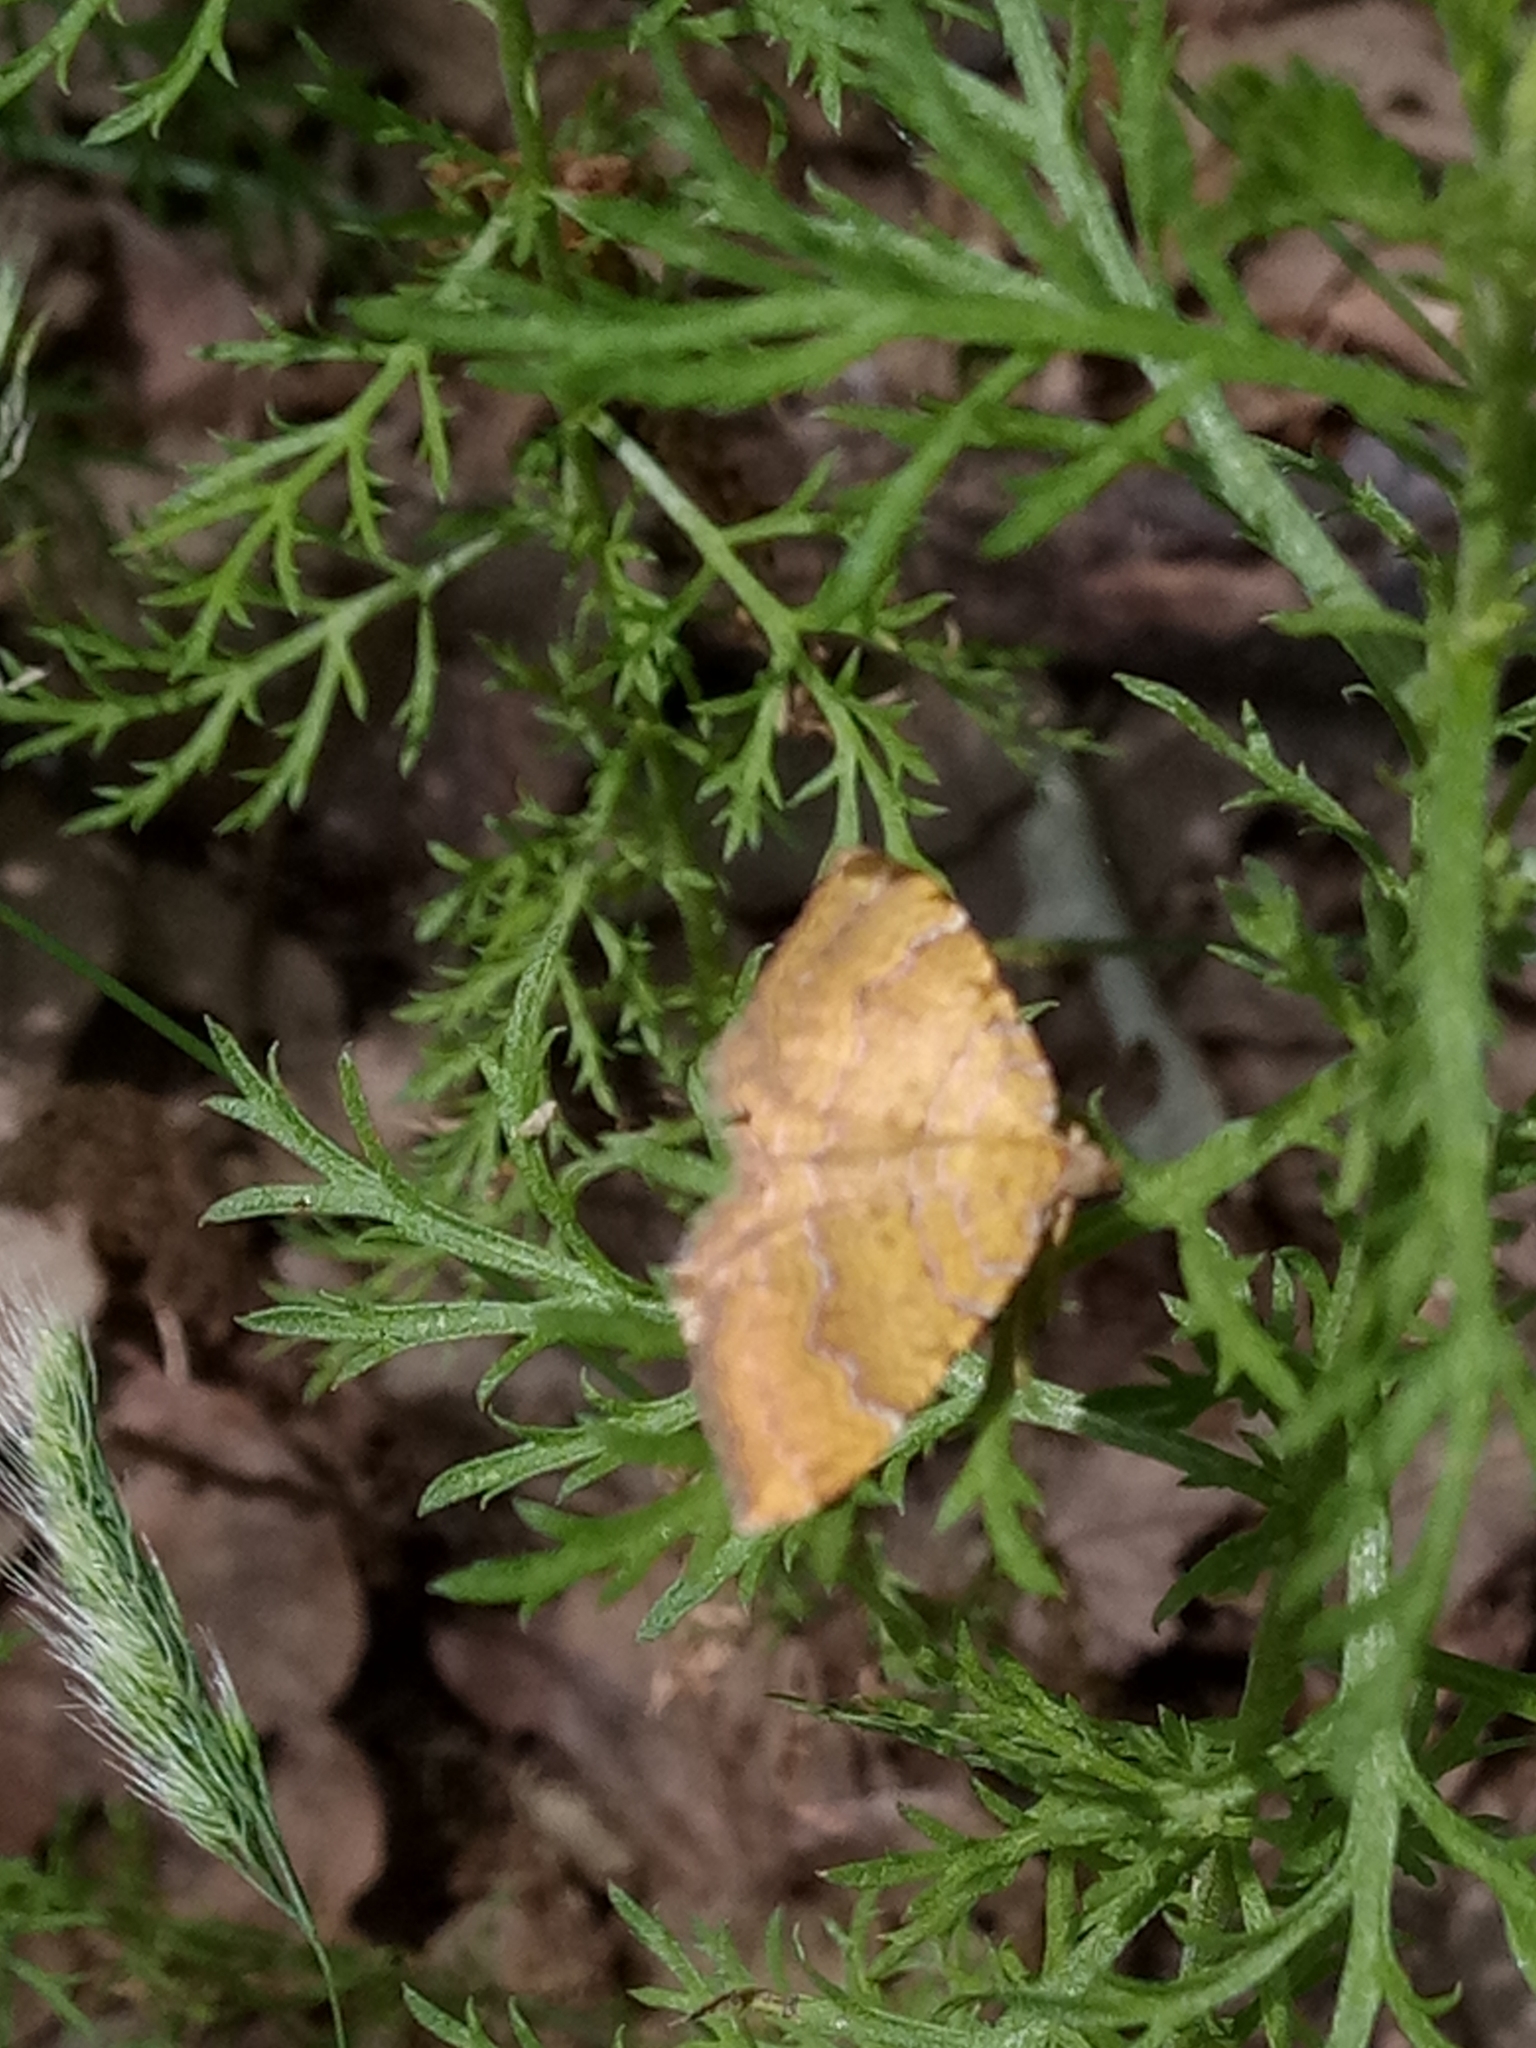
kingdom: Animalia
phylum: Arthropoda
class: Insecta
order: Lepidoptera
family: Geometridae
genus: Camptogramma
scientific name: Camptogramma bilineata
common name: Yellow shell
